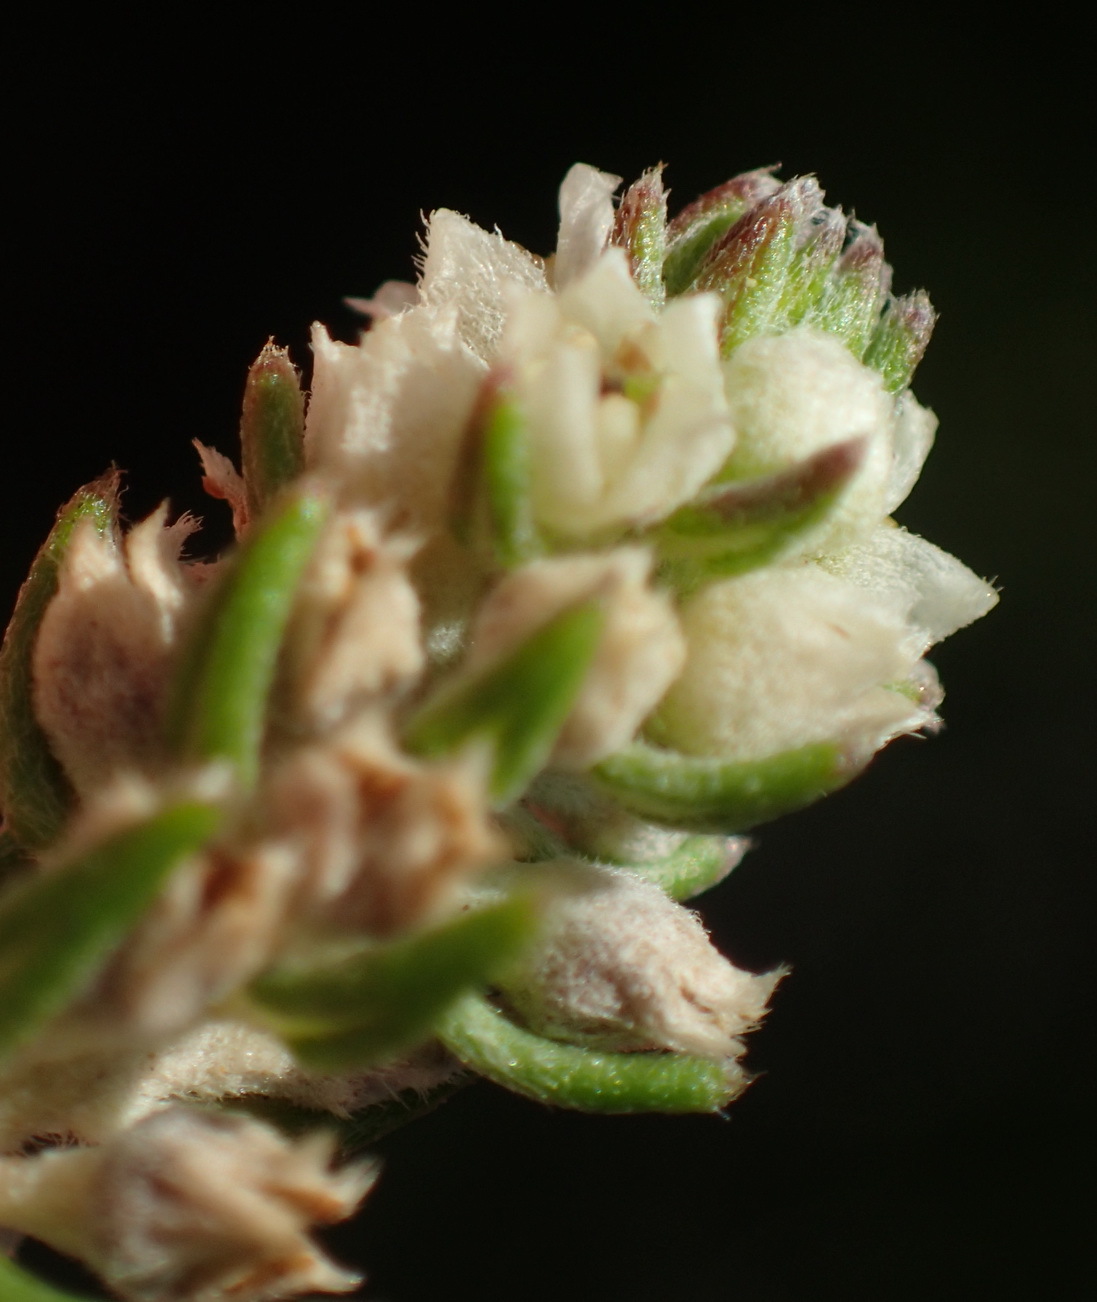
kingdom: Plantae
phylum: Tracheophyta
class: Magnoliopsida
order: Rosales
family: Rhamnaceae
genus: Phylica
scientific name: Phylica axillaris
